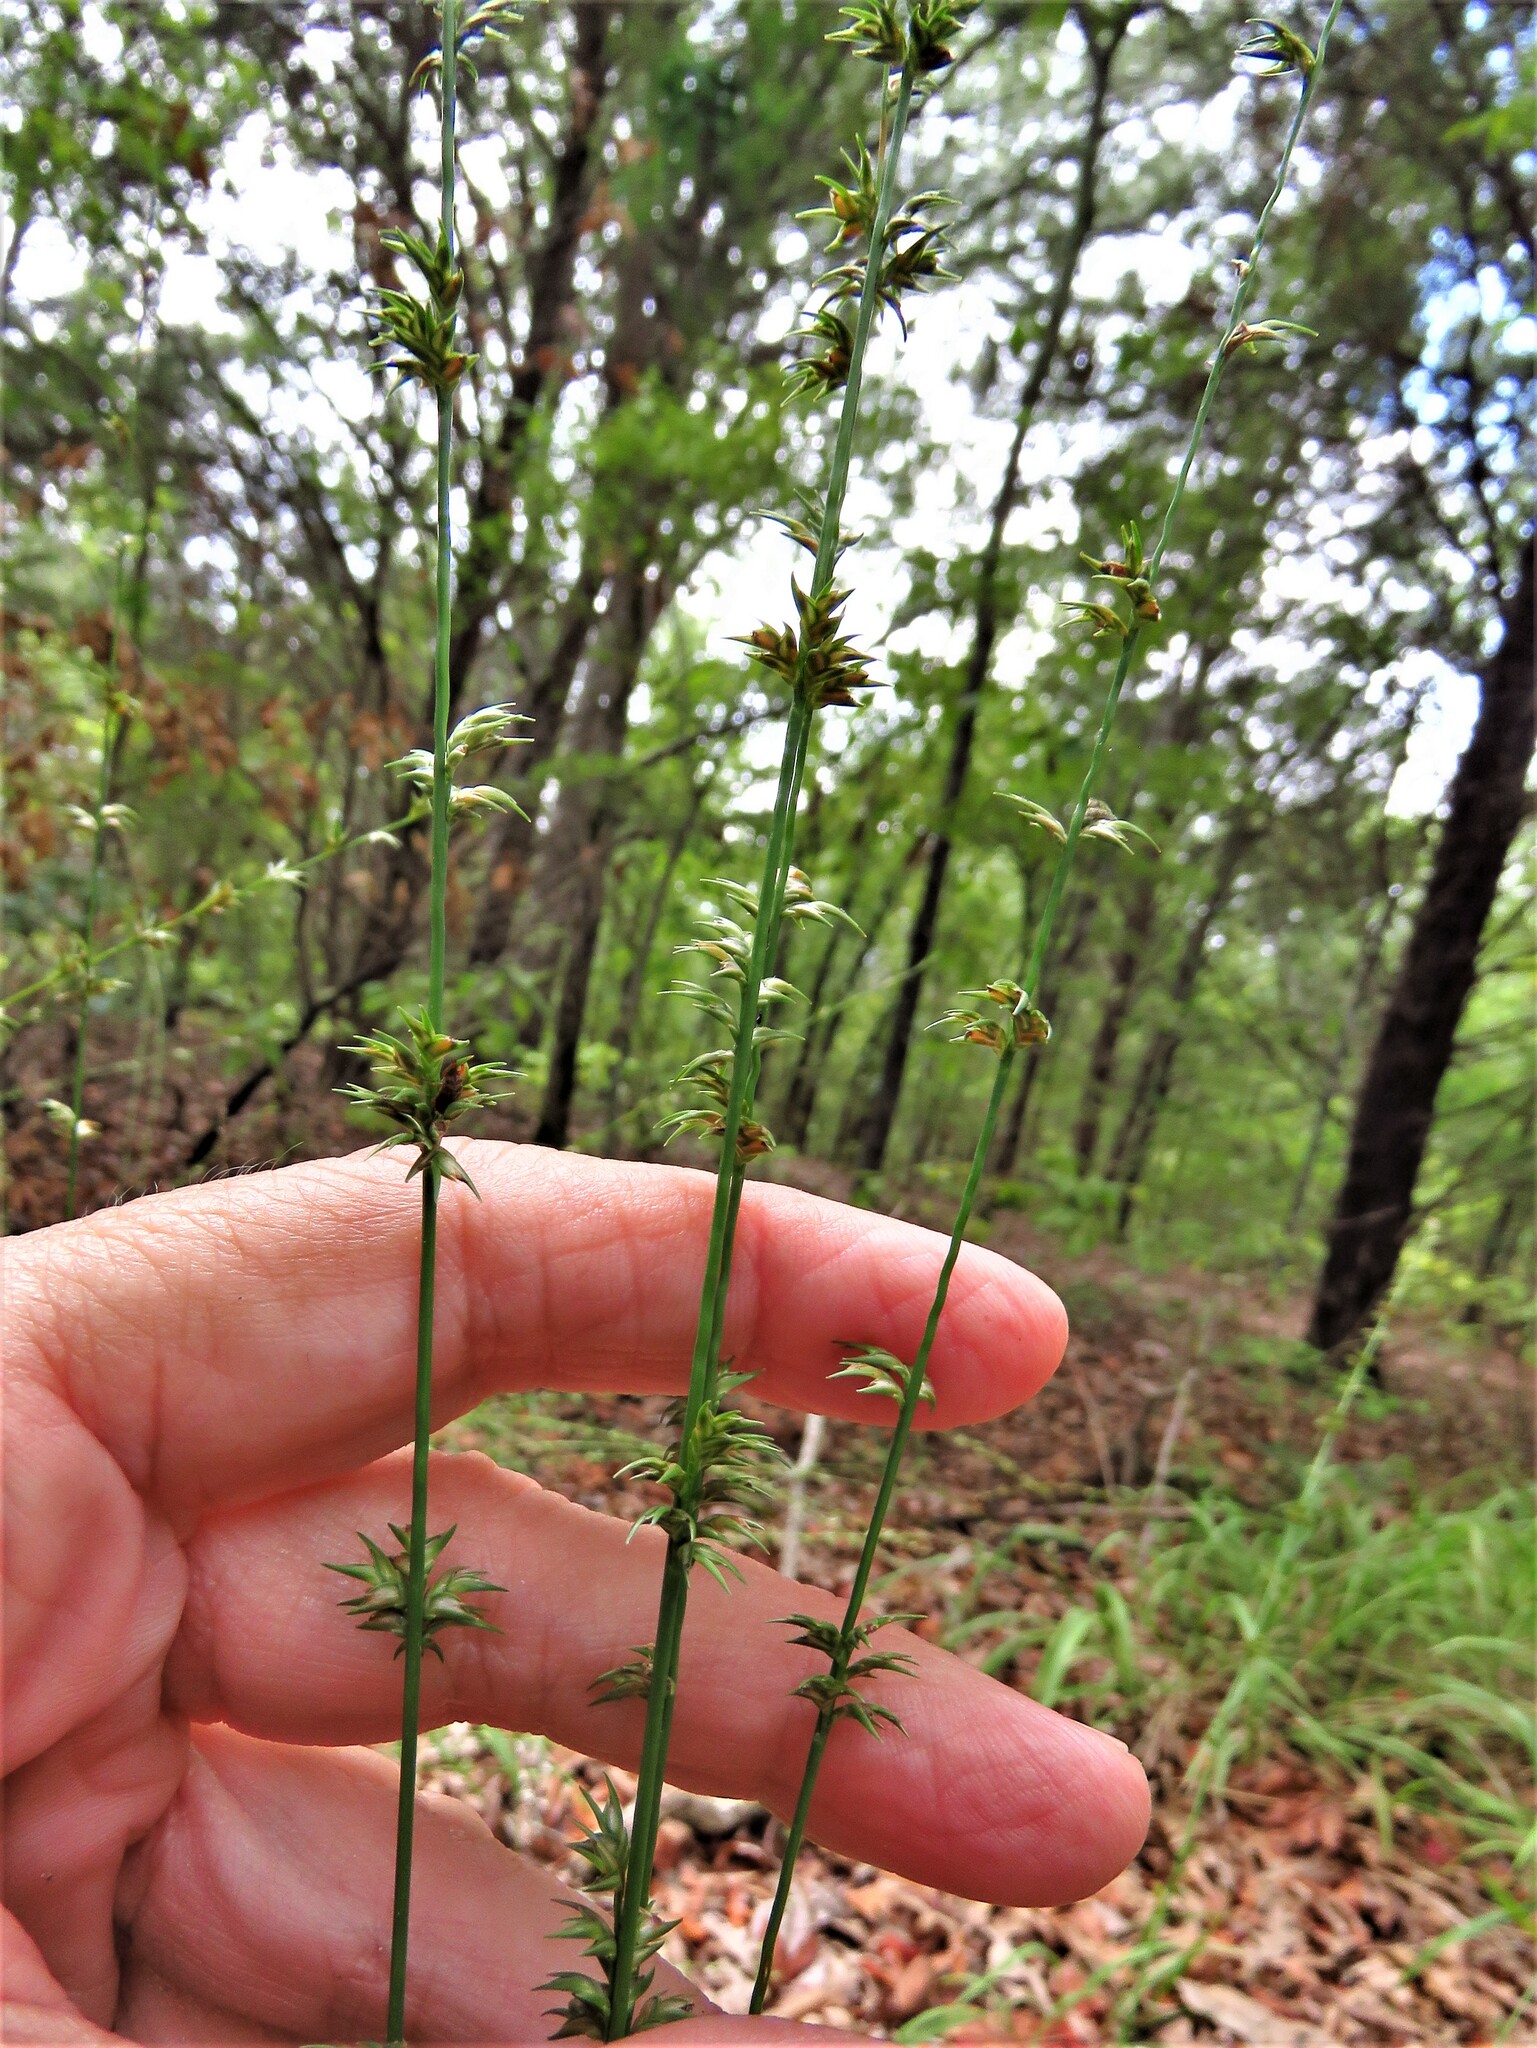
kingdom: Plantae
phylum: Tracheophyta
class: Liliopsida
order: Poales
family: Poaceae
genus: Chasmanthium
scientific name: Chasmanthium laxum
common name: Slender chasmanthium
